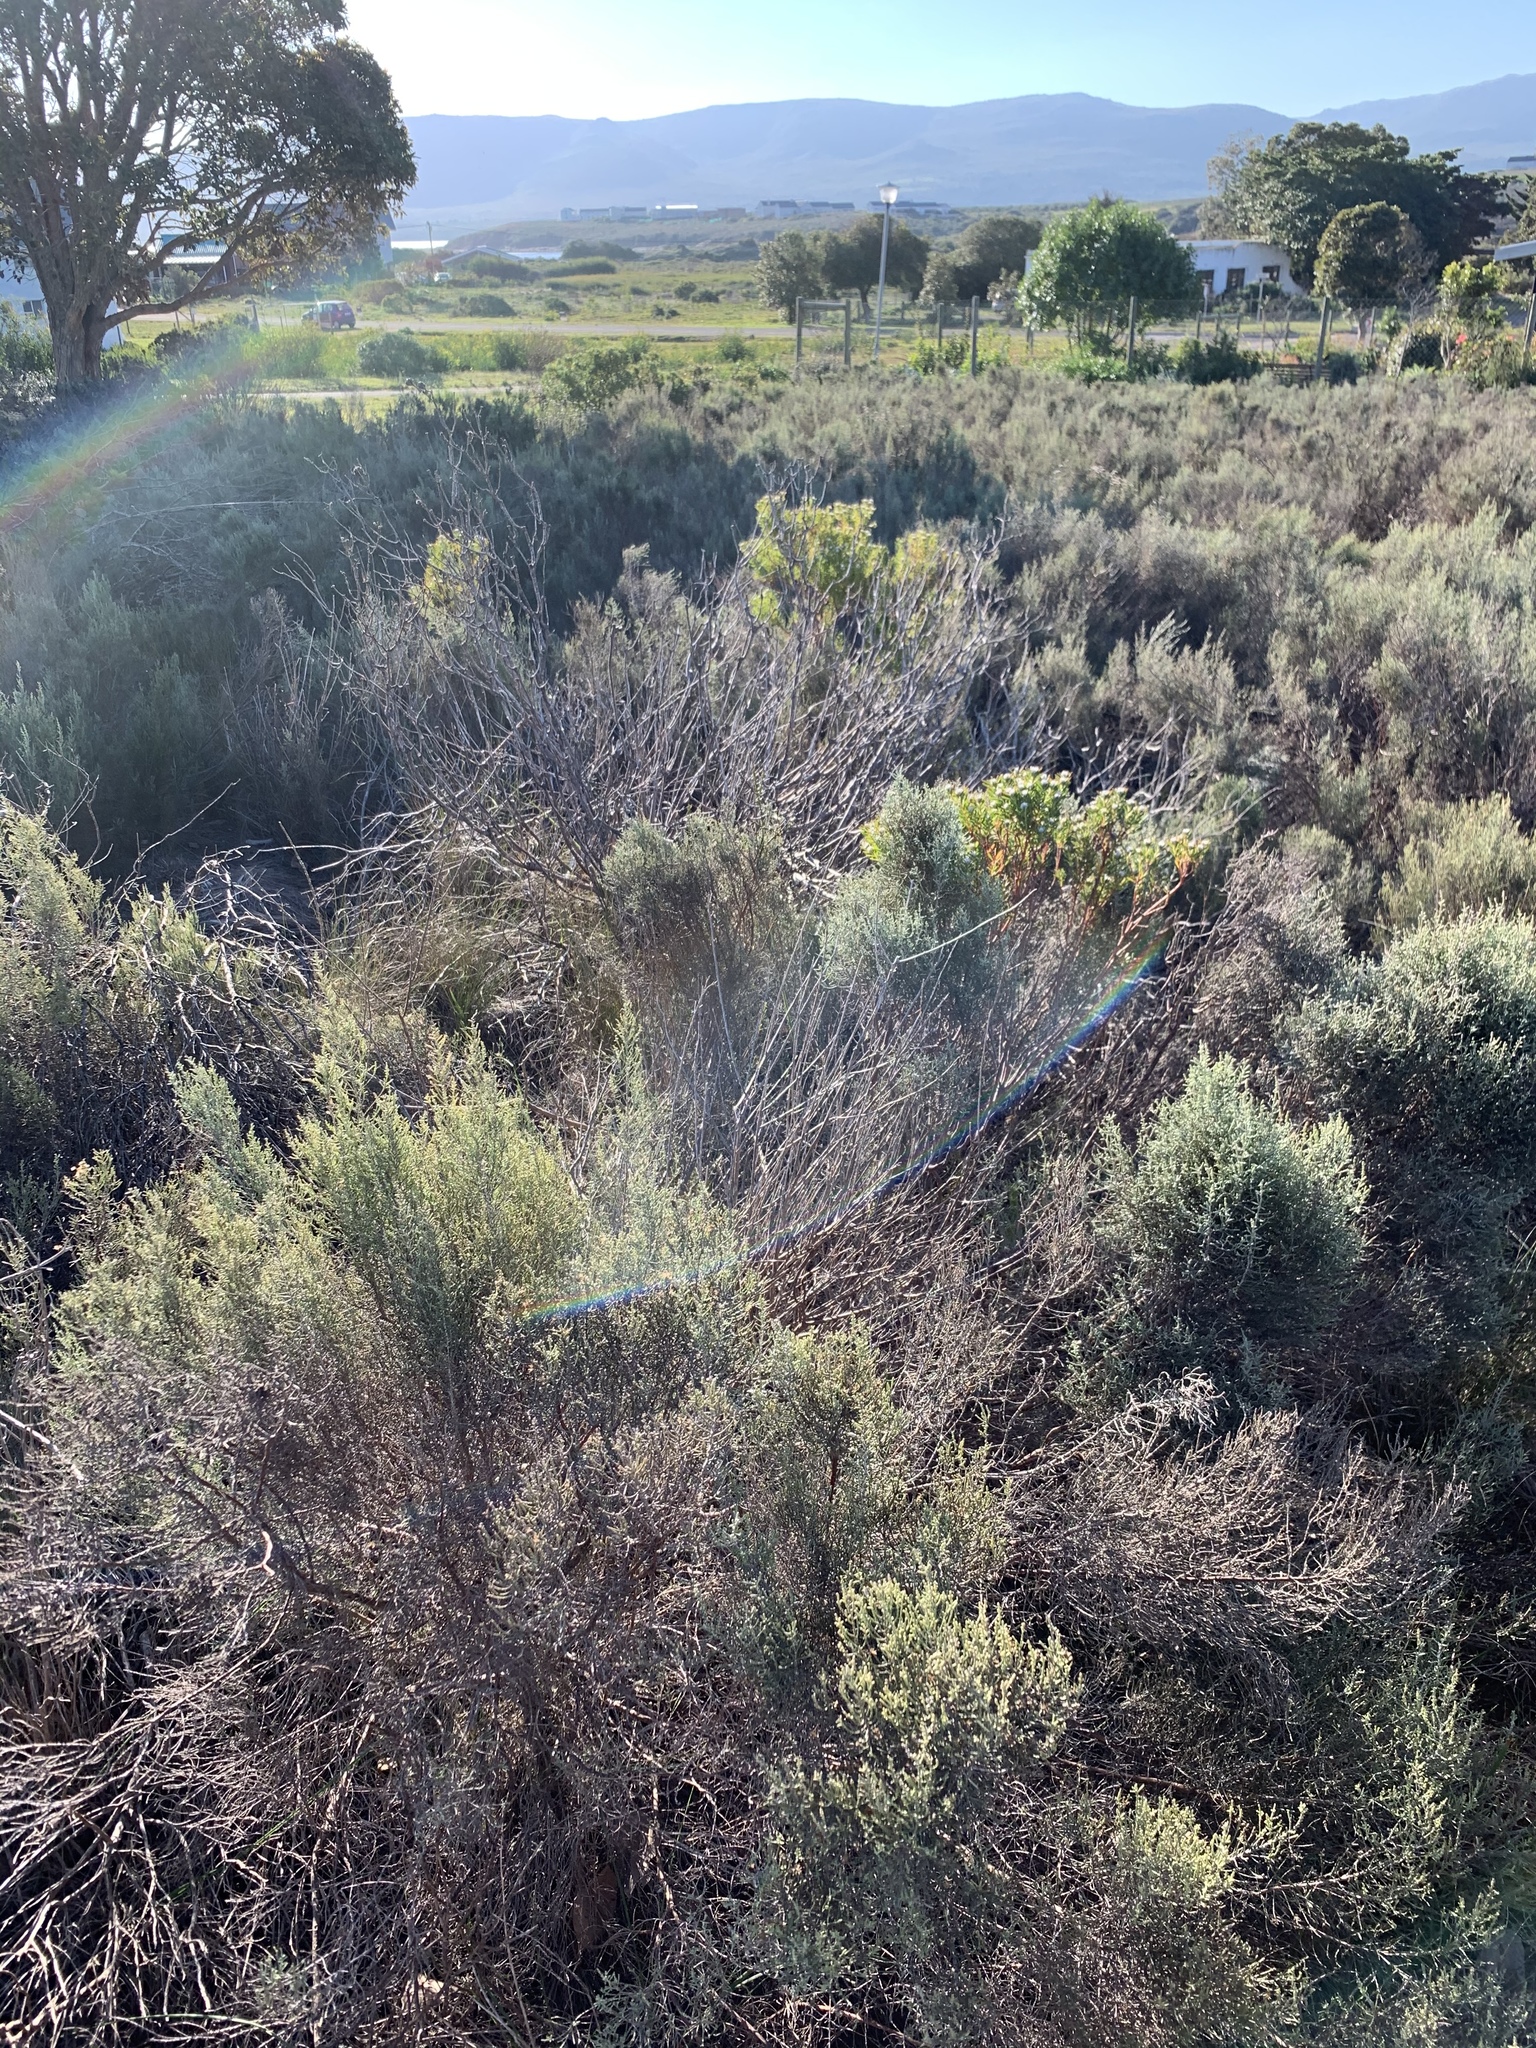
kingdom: Plantae
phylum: Tracheophyta
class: Magnoliopsida
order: Asterales
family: Asteraceae
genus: Dicerothamnus
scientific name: Dicerothamnus rhinocerotis
